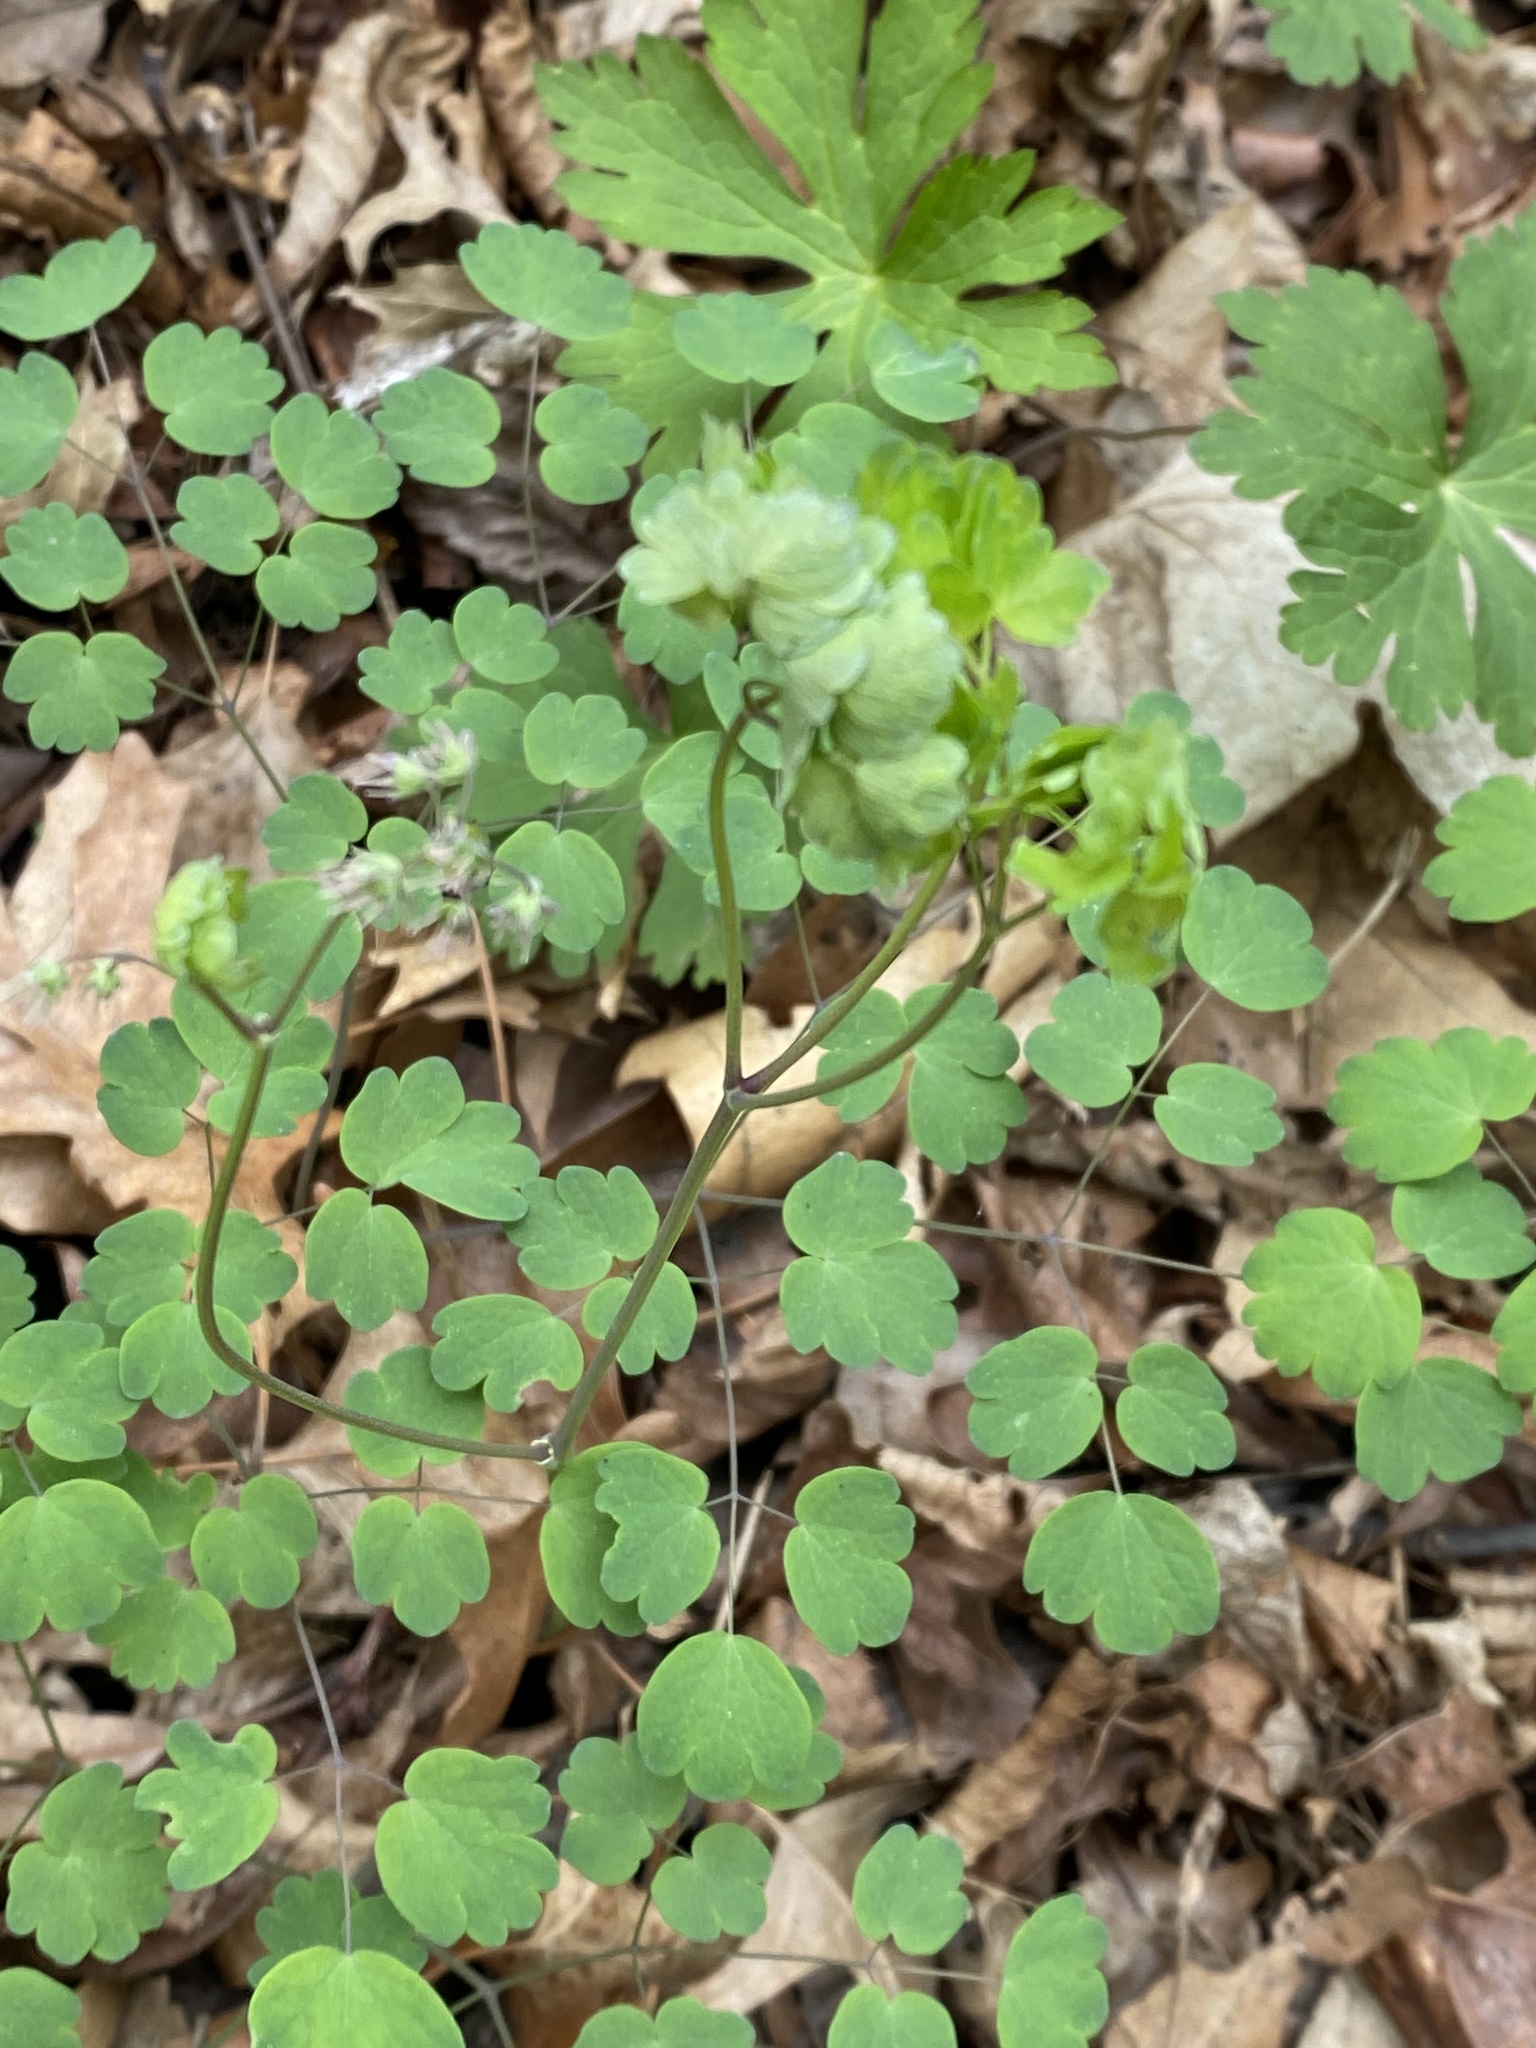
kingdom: Plantae
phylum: Tracheophyta
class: Magnoliopsida
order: Ranunculales
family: Ranunculaceae
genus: Thalictrum
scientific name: Thalictrum dioicum
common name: Early meadow-rue
